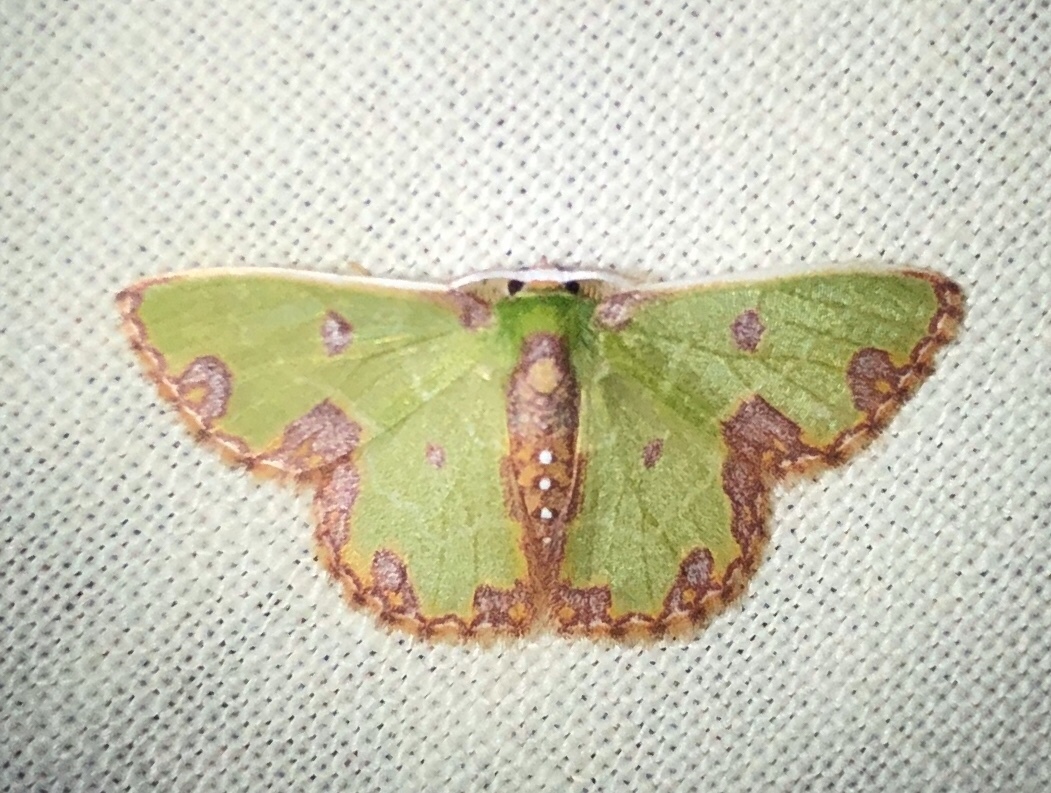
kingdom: Animalia
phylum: Arthropoda
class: Insecta
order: Lepidoptera
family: Geometridae
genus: Synchlora
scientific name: Synchlora gerularia
